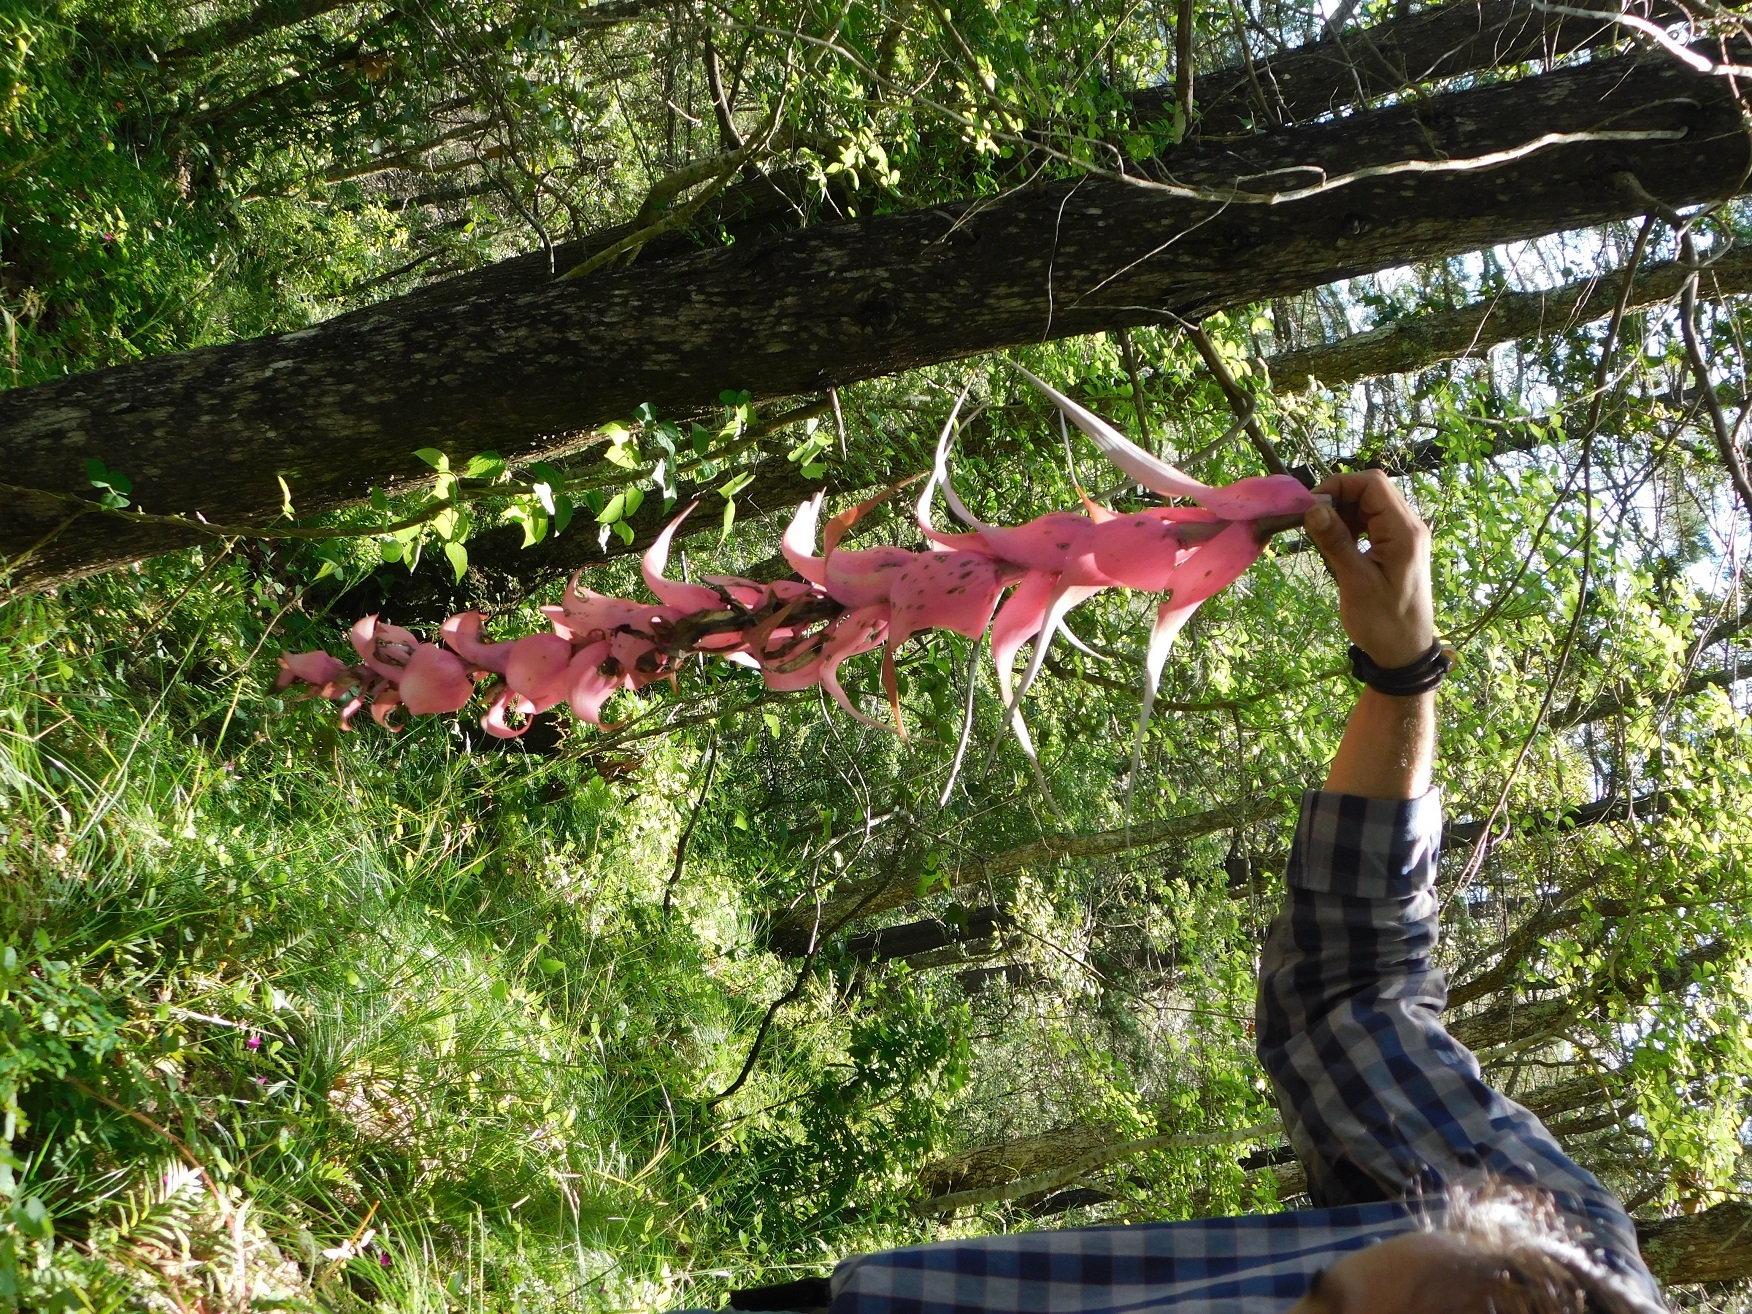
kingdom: Plantae
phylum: Tracheophyta
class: Liliopsida
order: Poales
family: Bromeliaceae
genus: Tillandsia
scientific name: Tillandsia eizii
